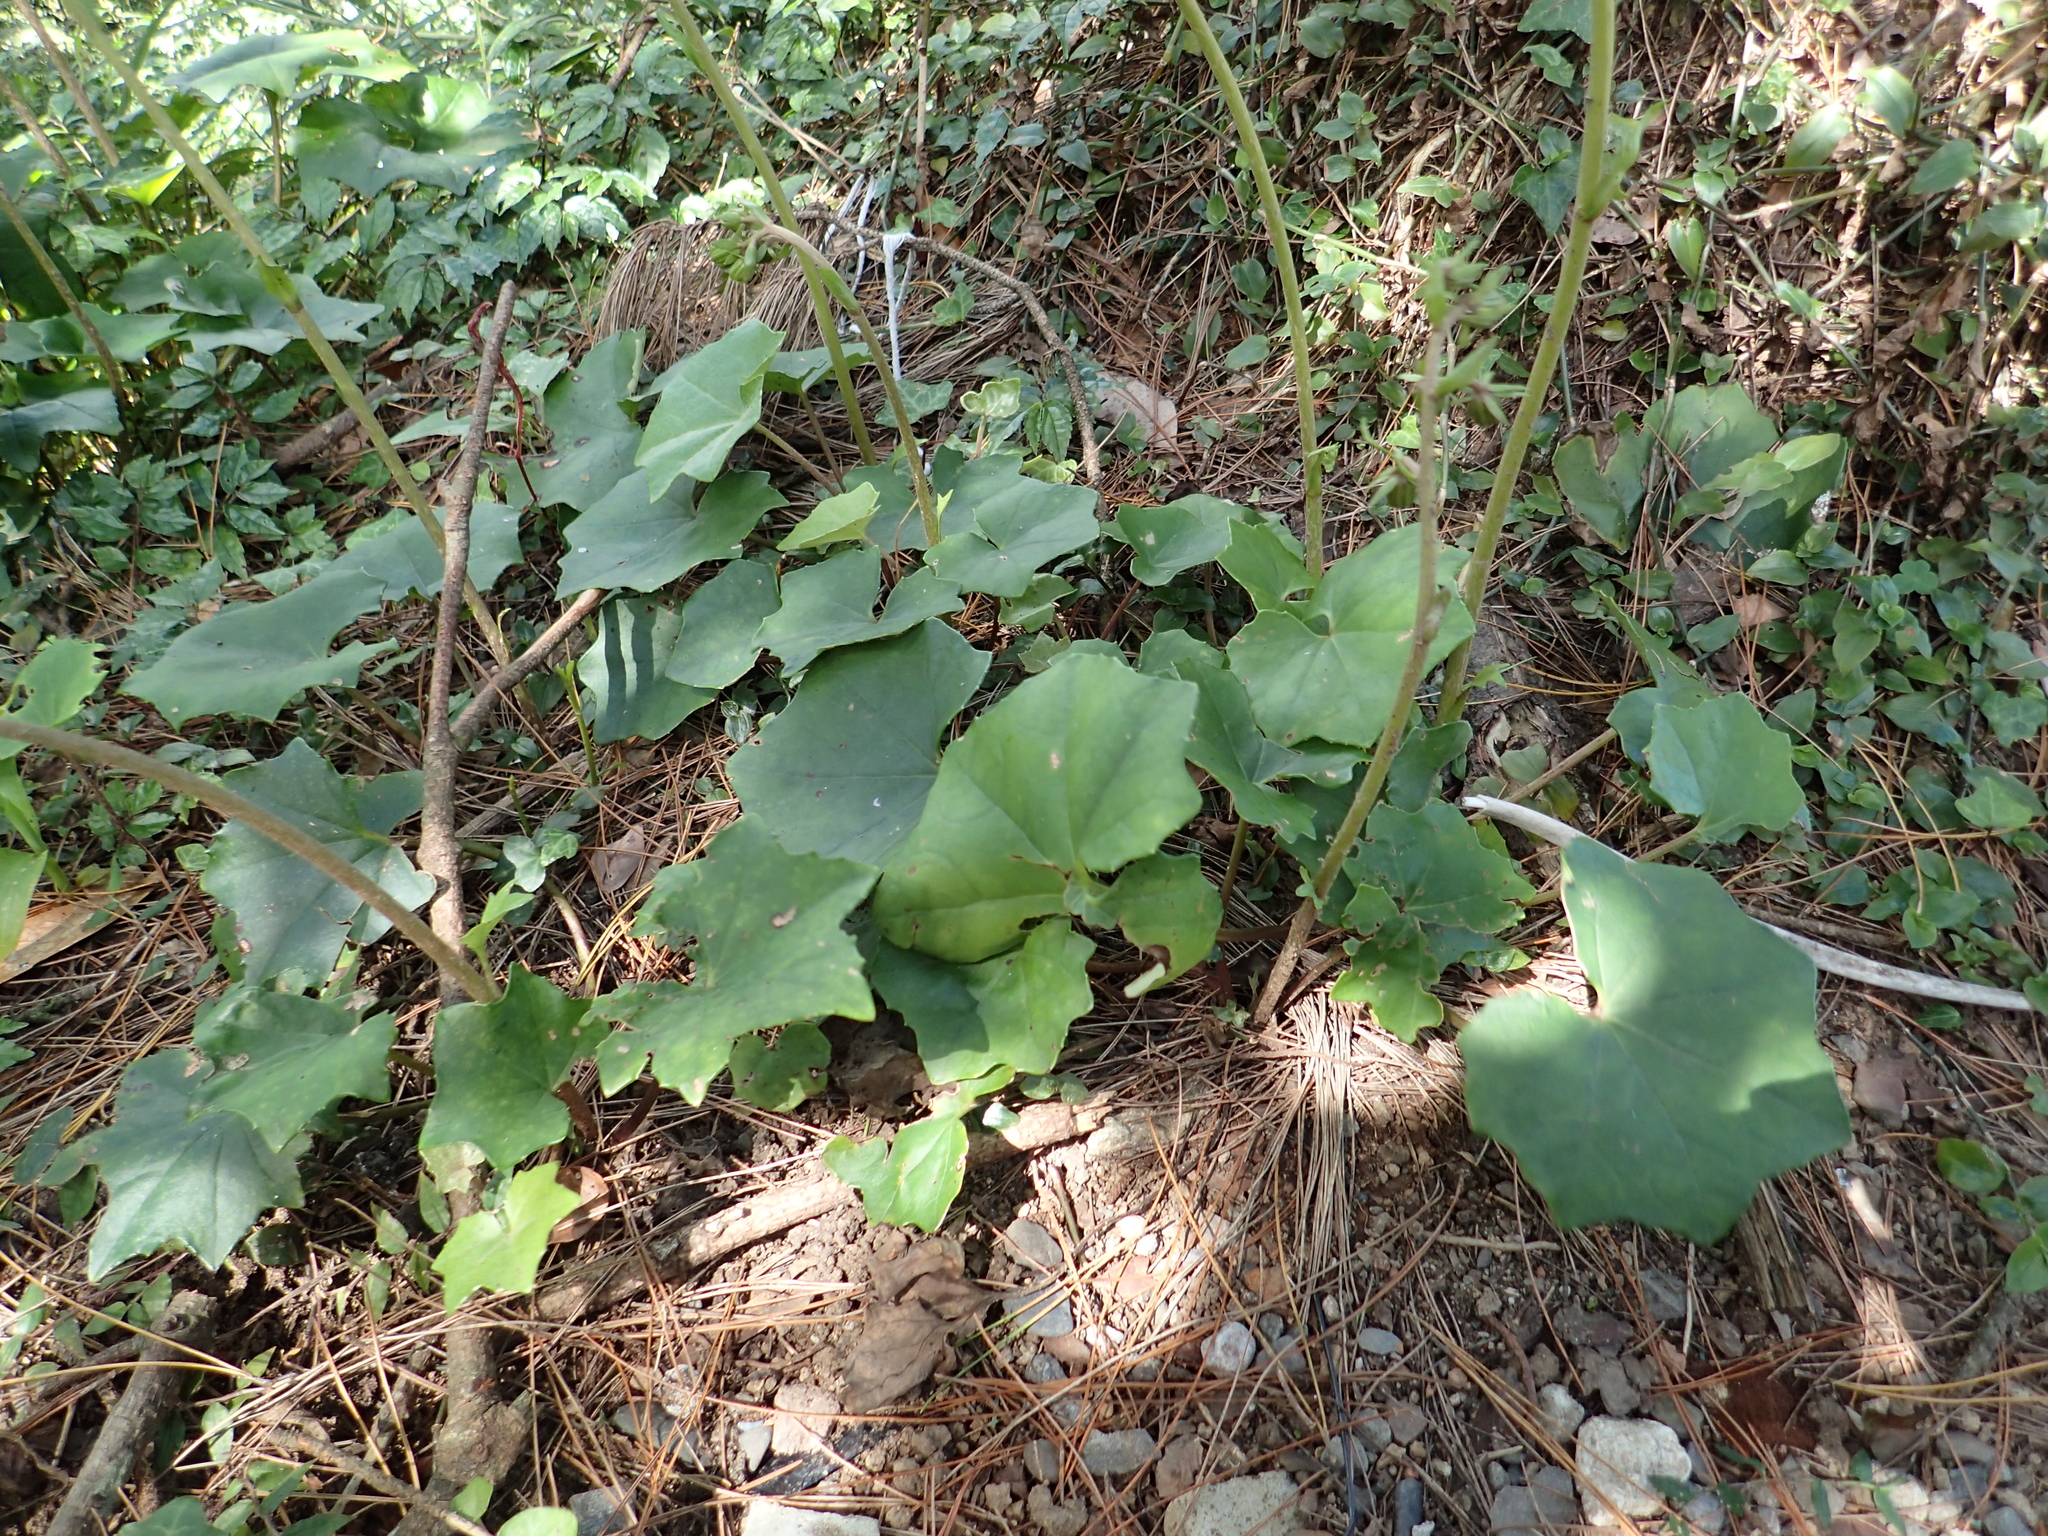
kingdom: Plantae
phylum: Tracheophyta
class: Magnoliopsida
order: Asterales
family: Asteraceae
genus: Farfugium
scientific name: Farfugium japonicum
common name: Leopardplant
